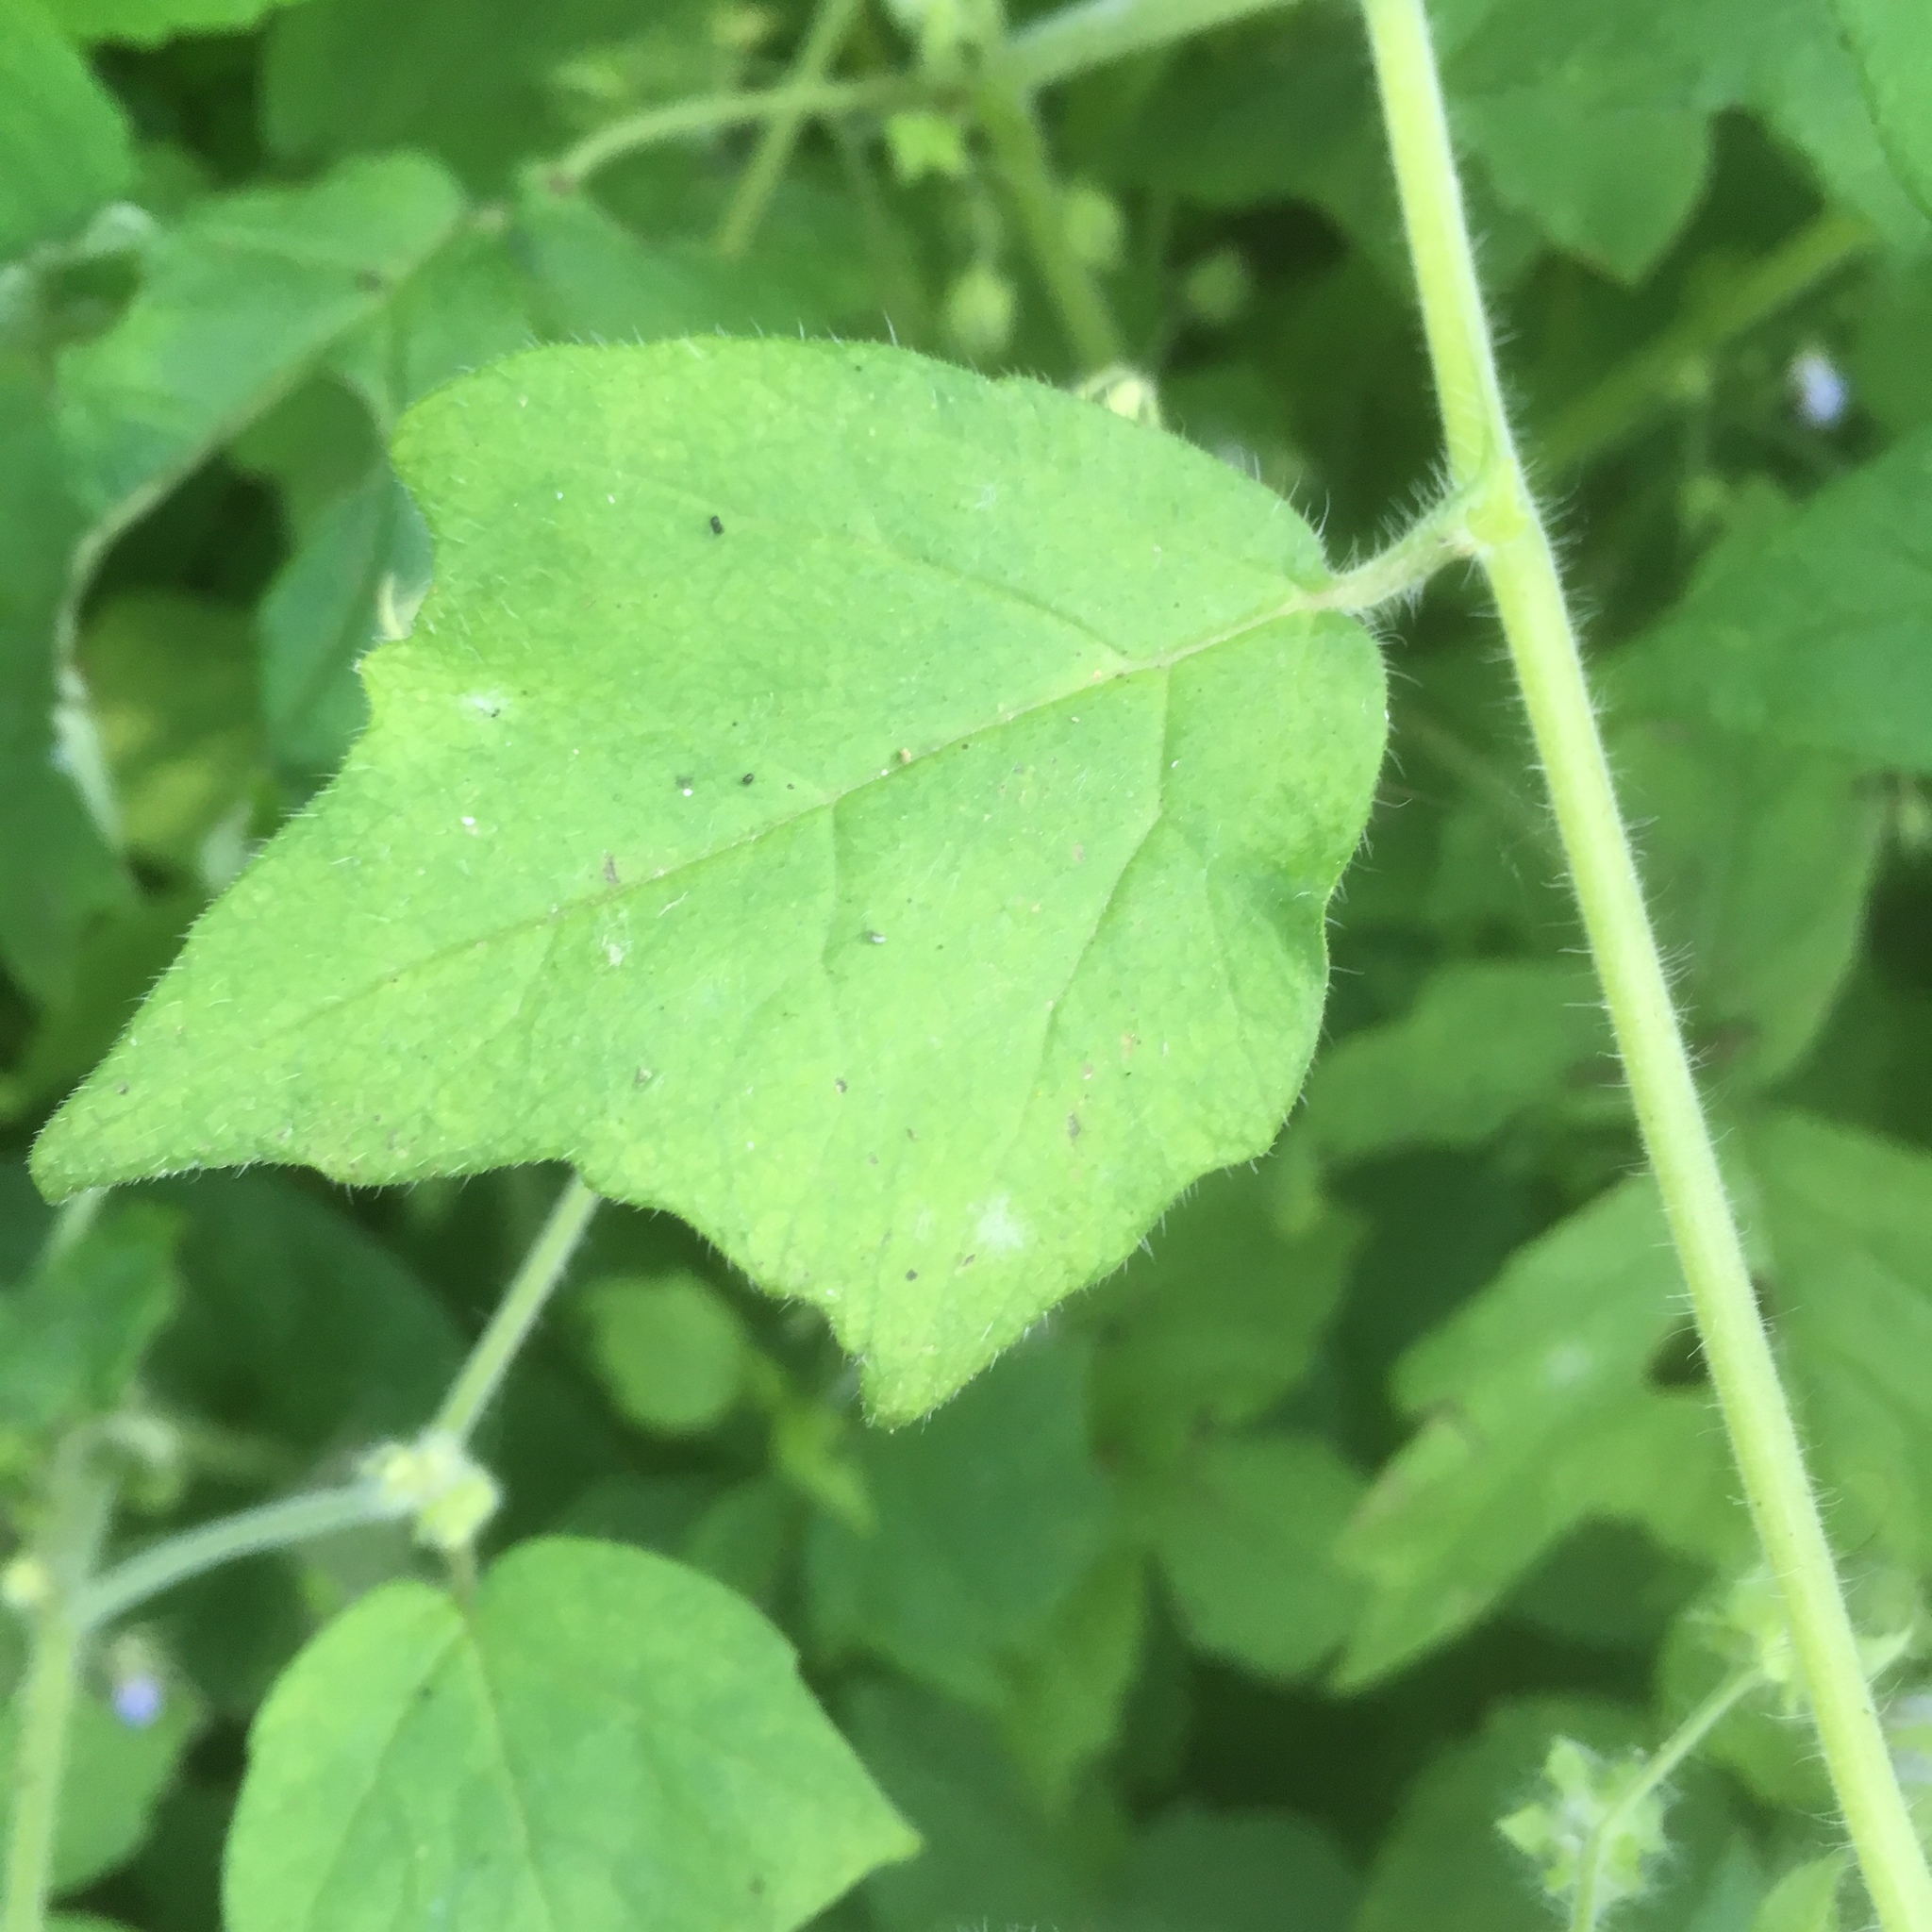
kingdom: Plantae
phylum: Tracheophyta
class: Magnoliopsida
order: Boraginales
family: Hydrophyllaceae
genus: Hydrophyllum
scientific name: Hydrophyllum appendiculatum
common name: Appendaged waterleaf
